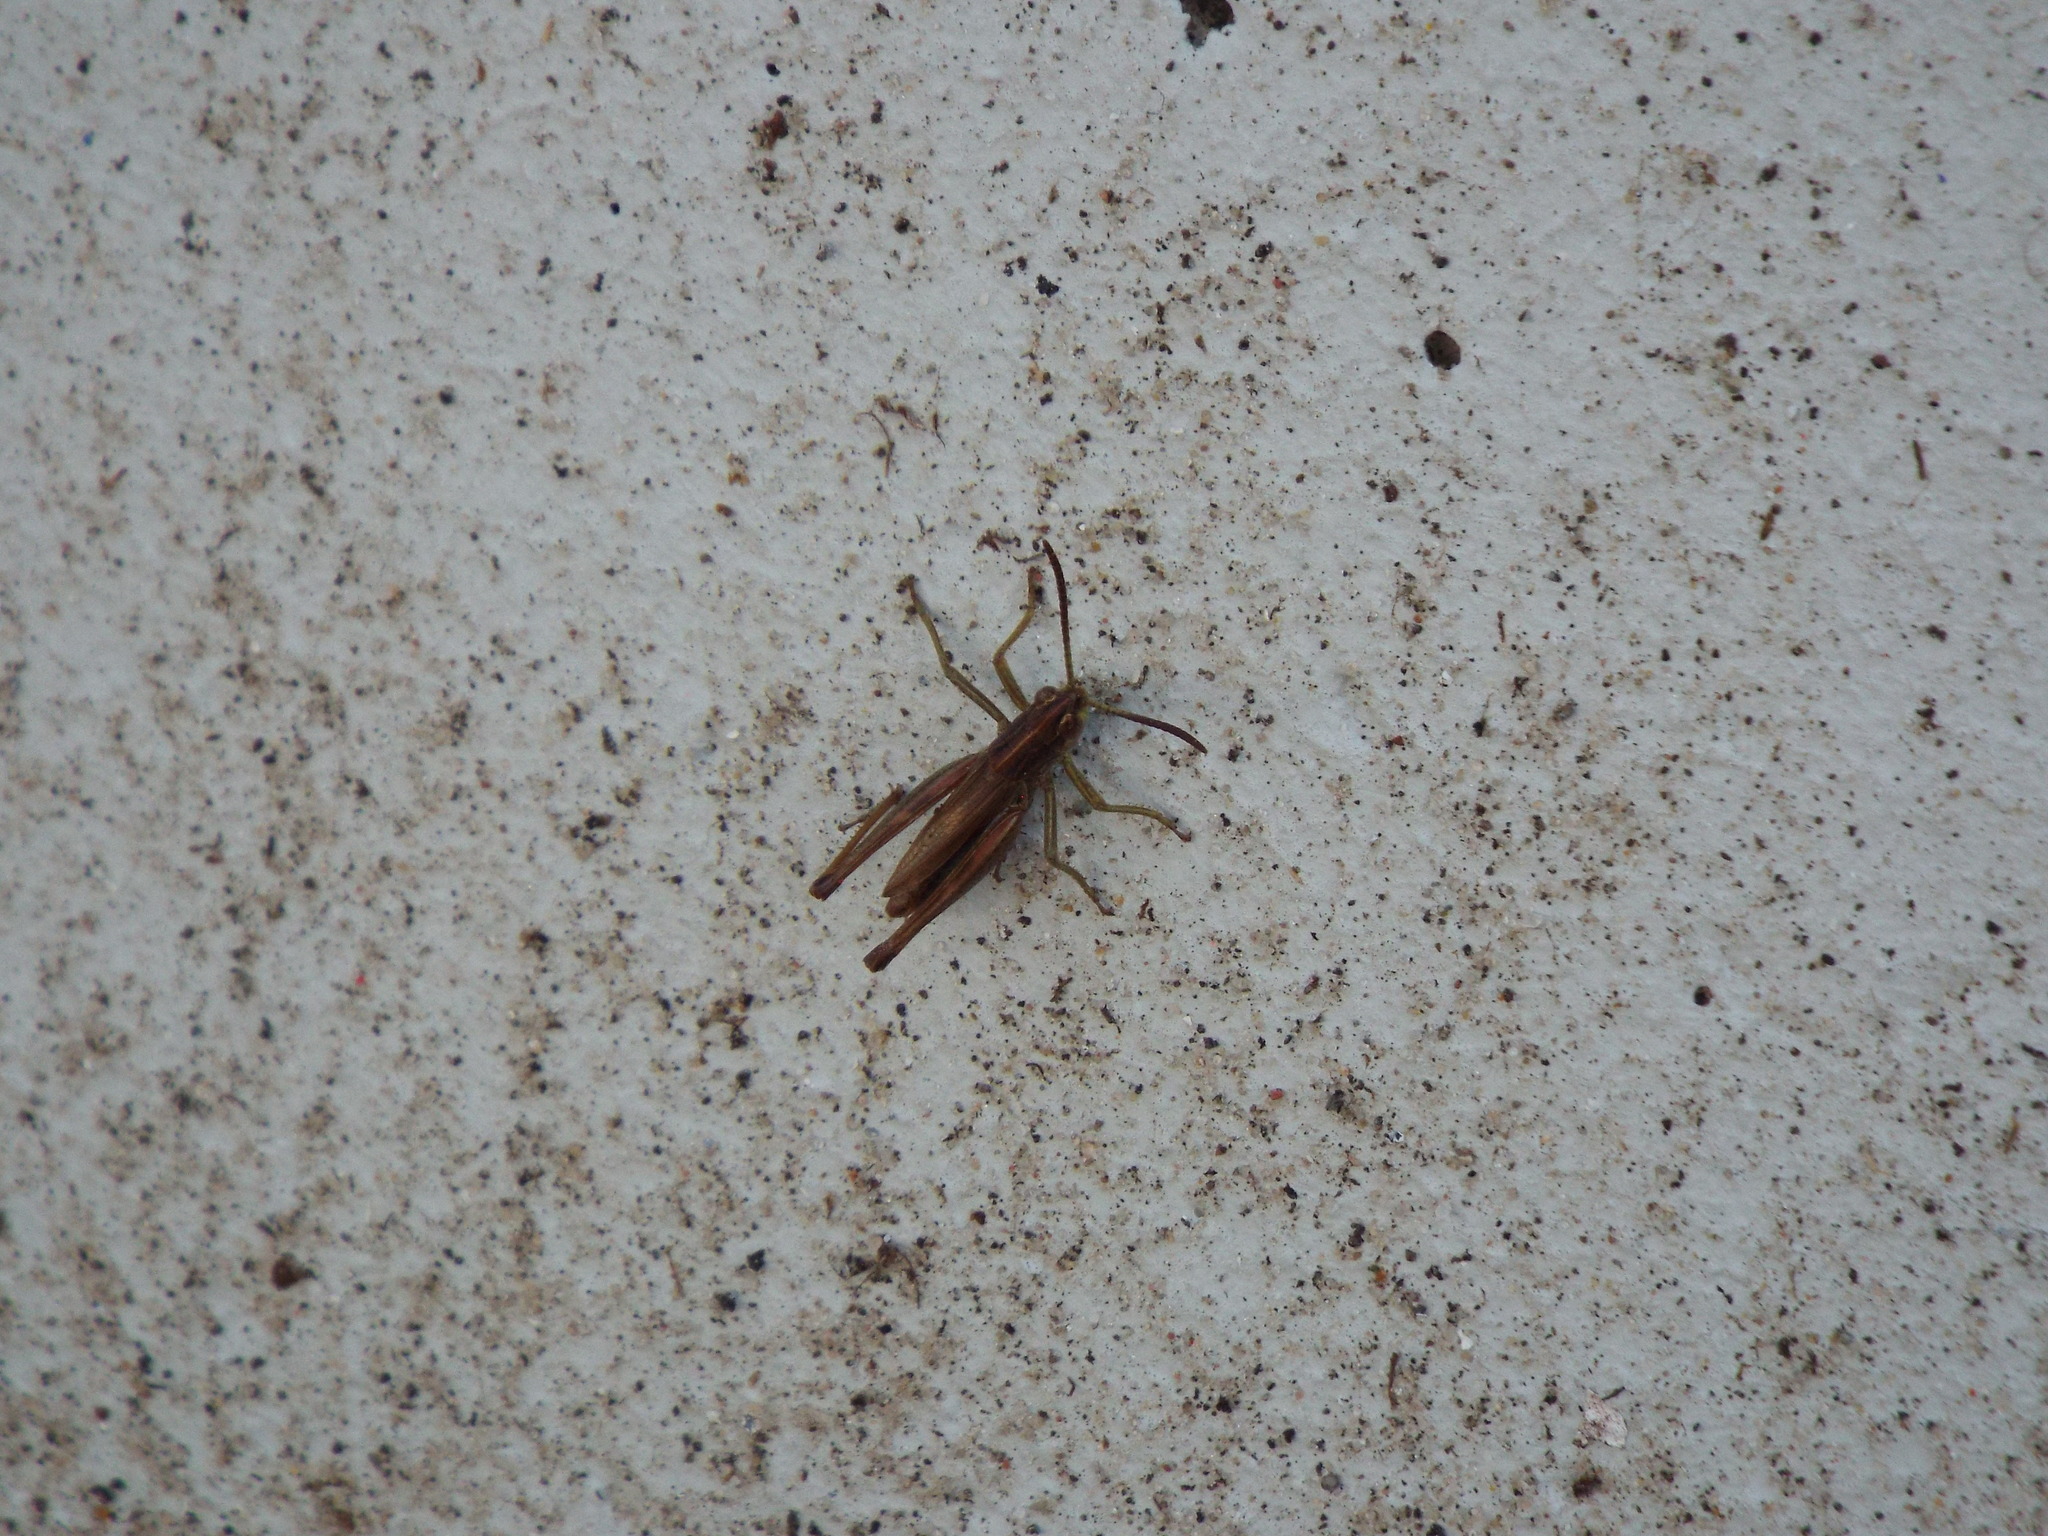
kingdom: Animalia
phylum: Arthropoda
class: Insecta
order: Orthoptera
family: Acrididae
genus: Pseudochorthippus
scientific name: Pseudochorthippus parallelus
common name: Meadow grasshopper
